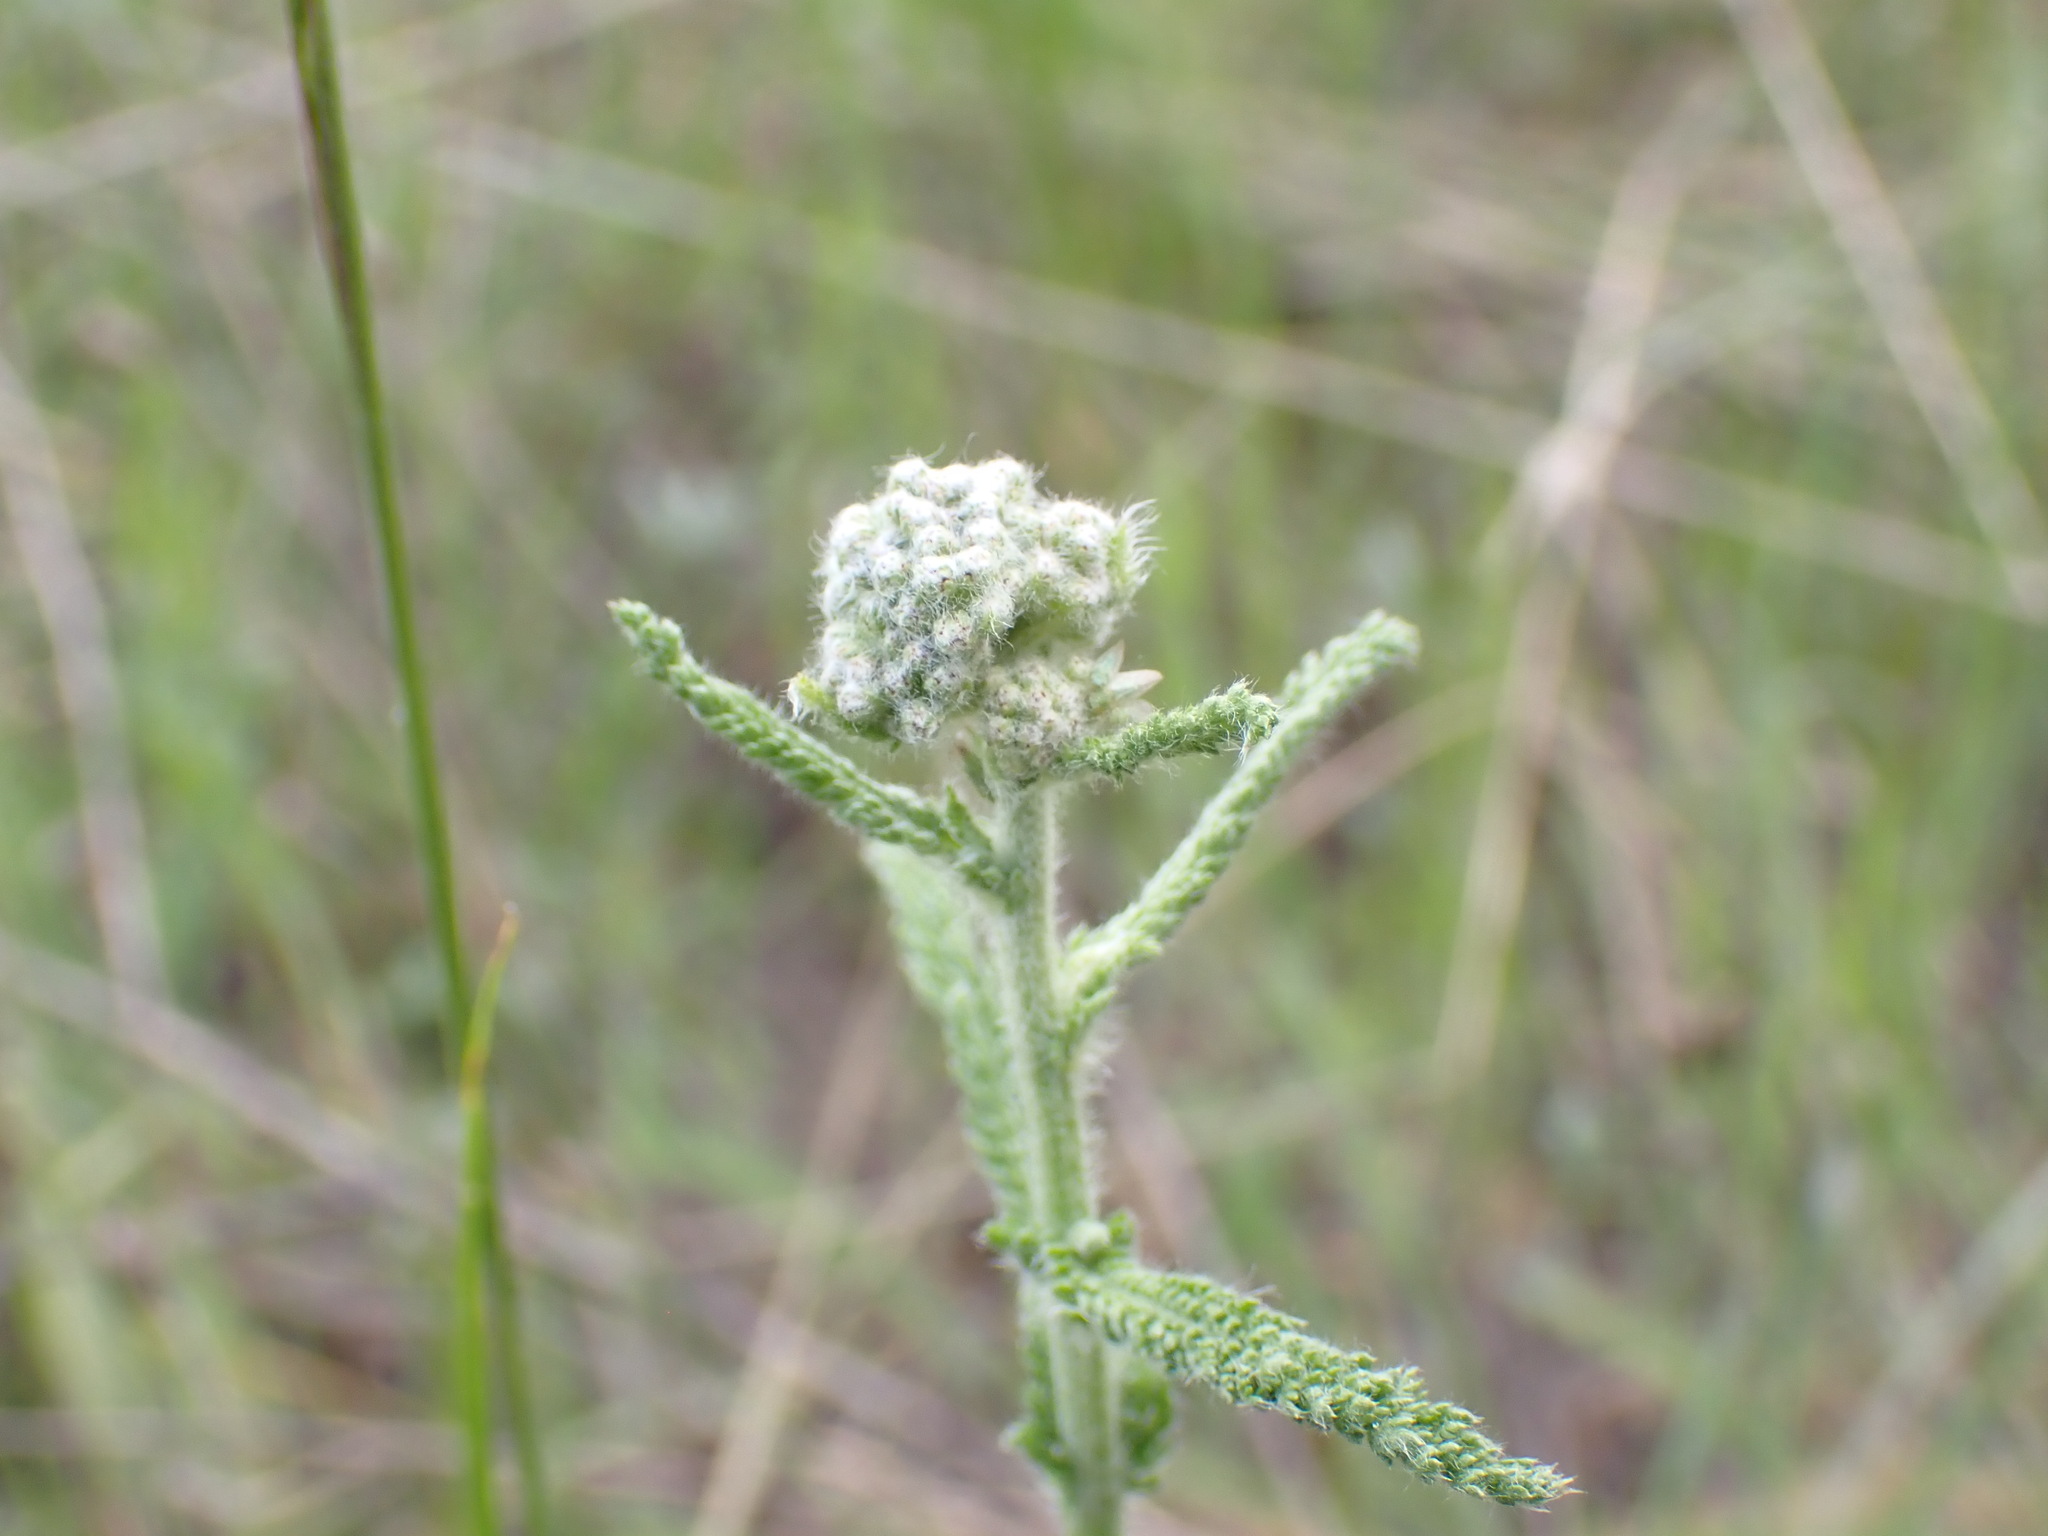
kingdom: Plantae
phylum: Tracheophyta
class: Magnoliopsida
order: Asterales
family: Asteraceae
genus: Achillea
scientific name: Achillea millefolium
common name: Yarrow
